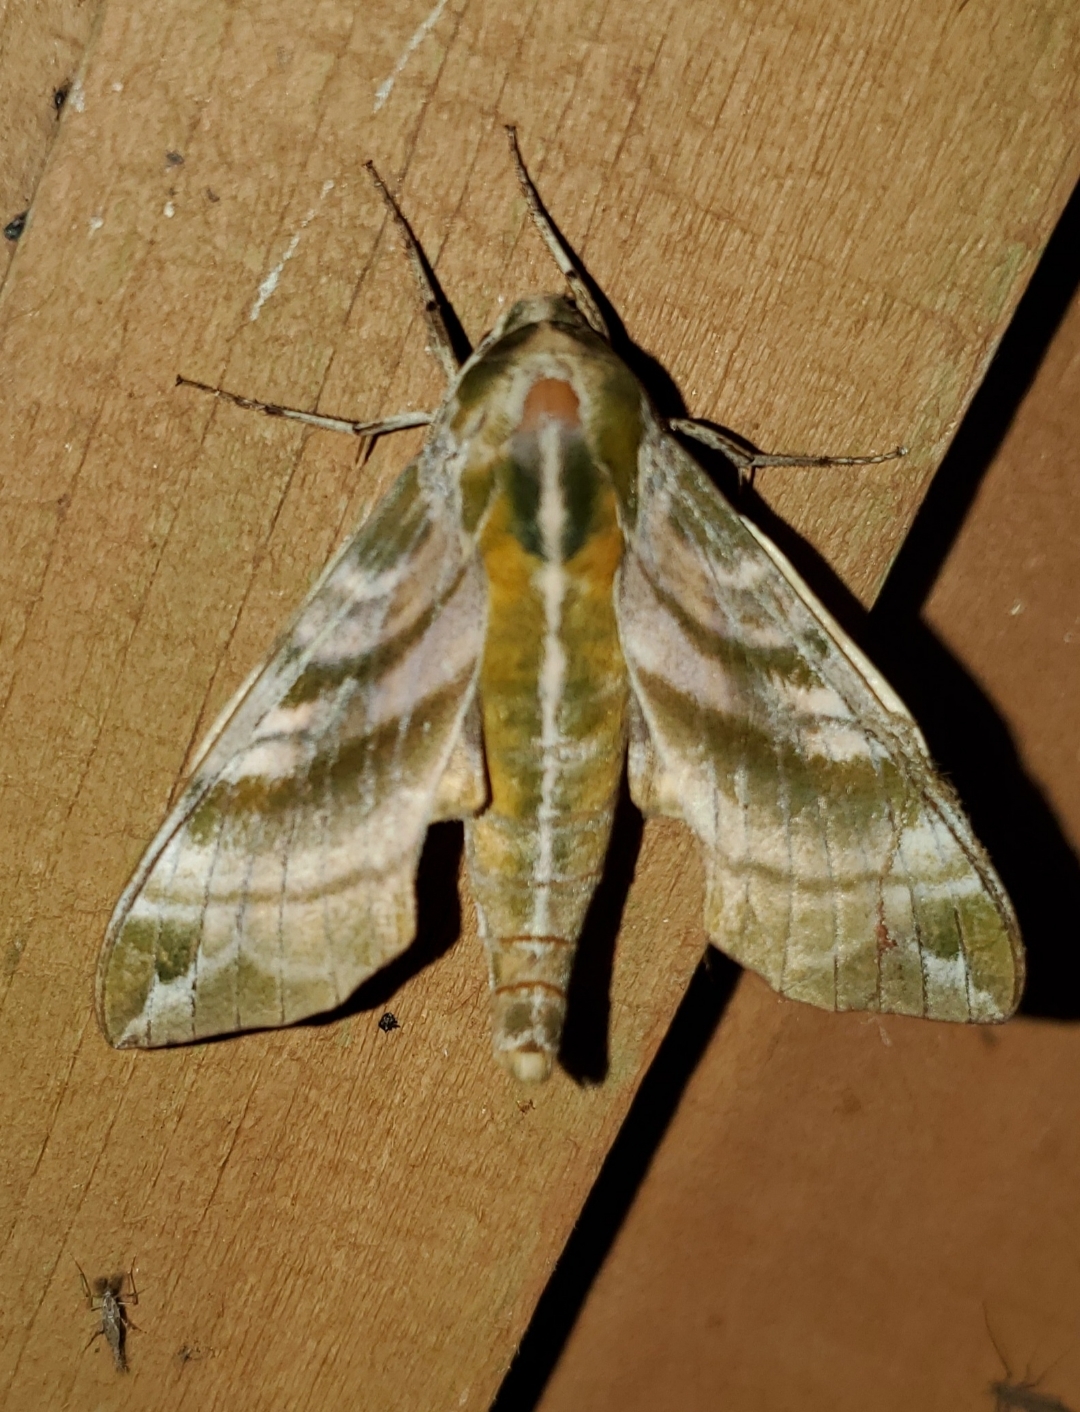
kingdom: Animalia
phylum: Arthropoda
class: Insecta
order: Lepidoptera
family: Sphingidae
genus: Darapsa
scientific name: Darapsa versicolor
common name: Hydrangea sphinx
